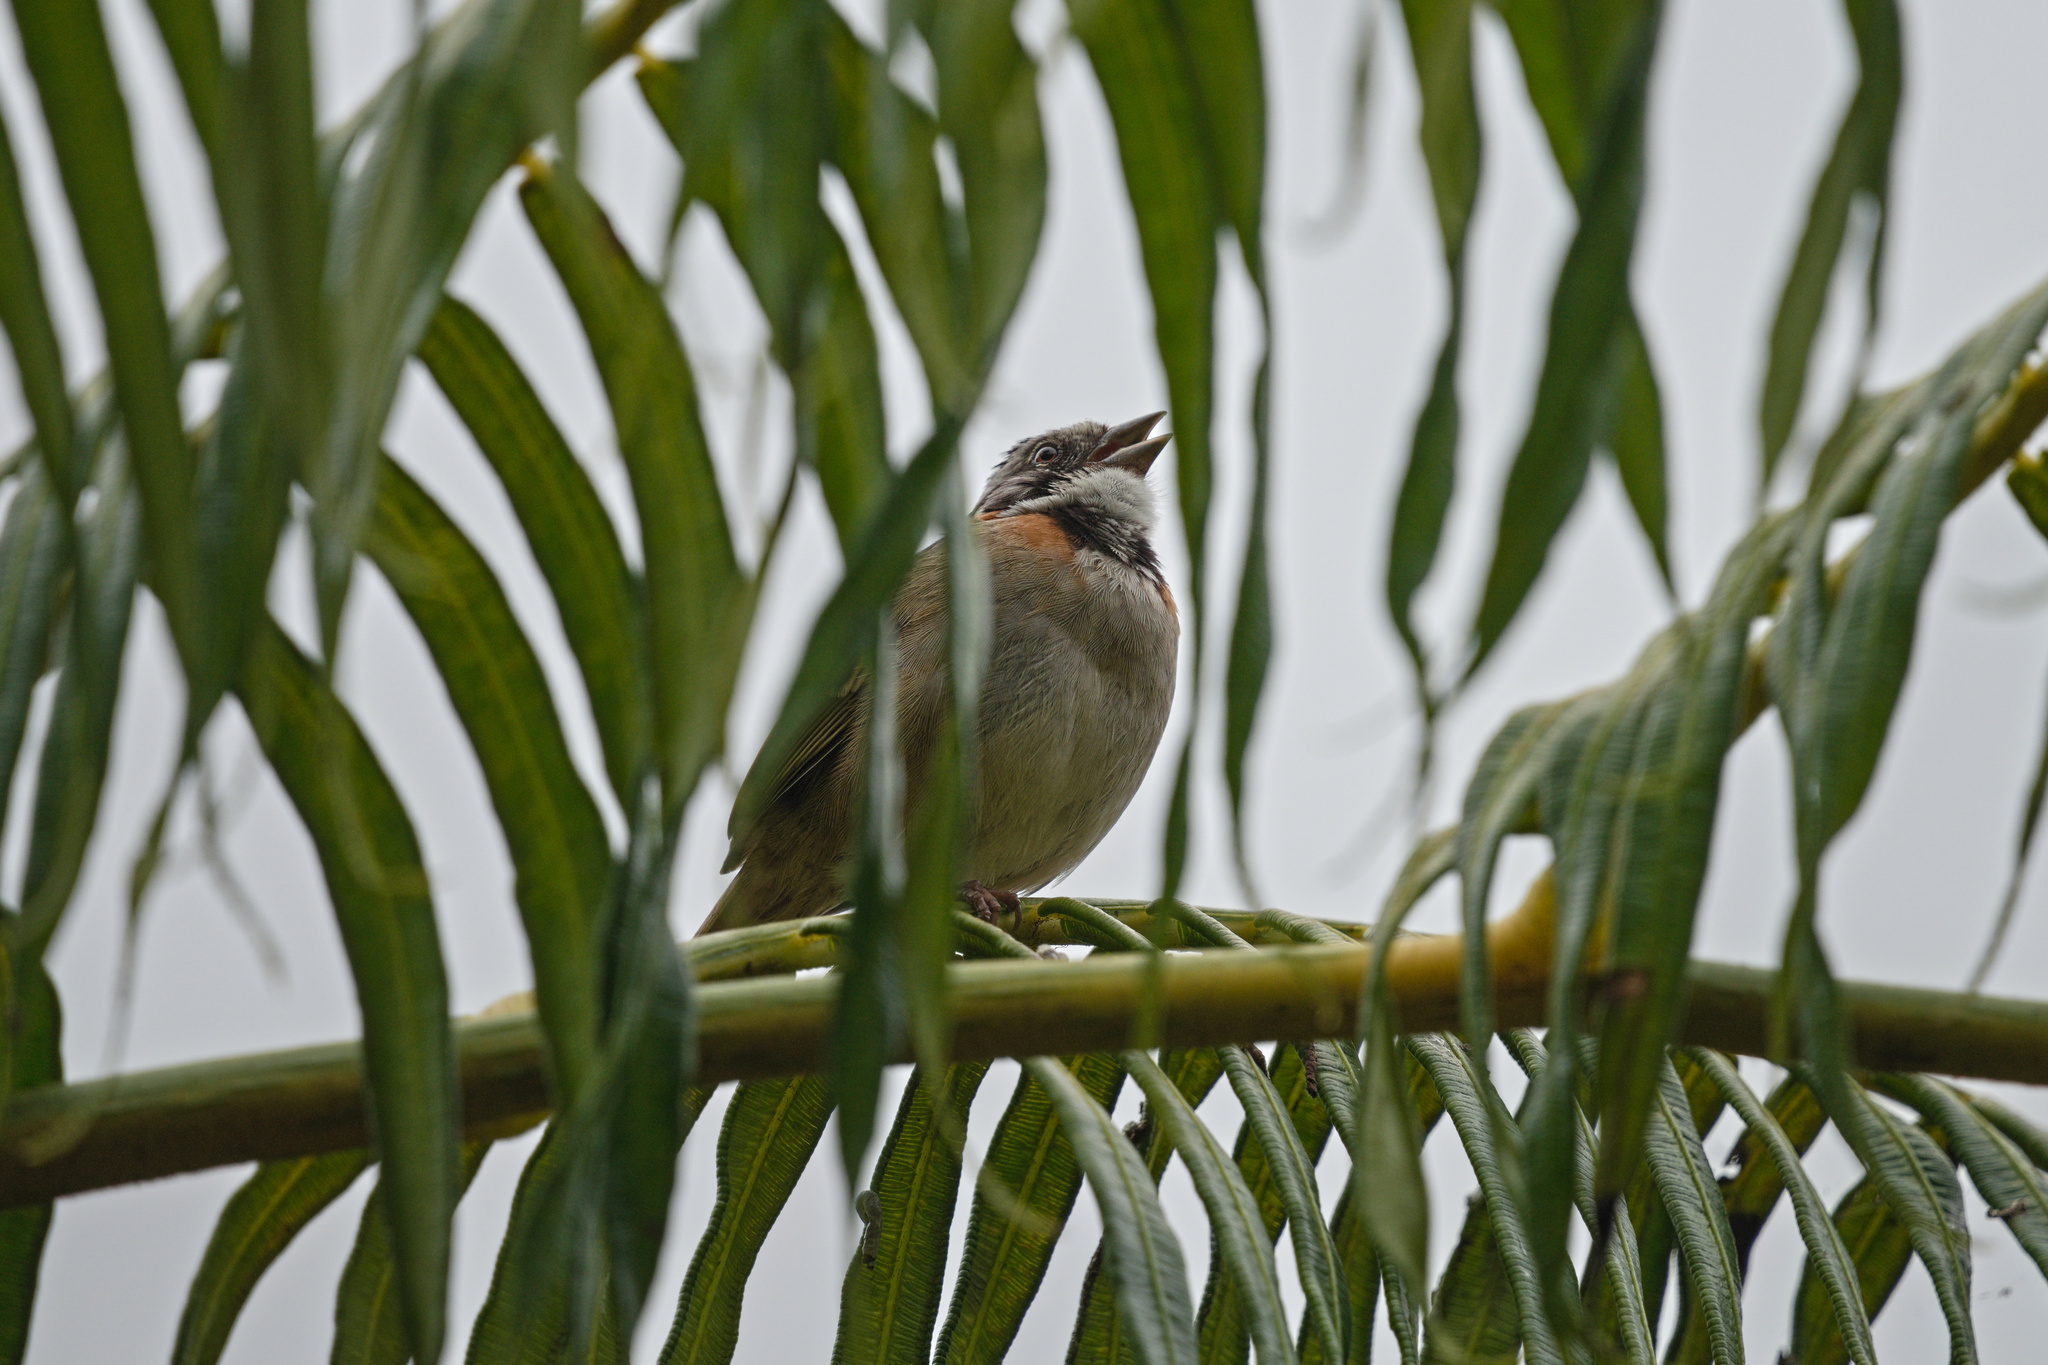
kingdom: Animalia
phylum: Chordata
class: Aves
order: Passeriformes
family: Passerellidae
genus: Zonotrichia
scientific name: Zonotrichia capensis
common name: Rufous-collared sparrow
